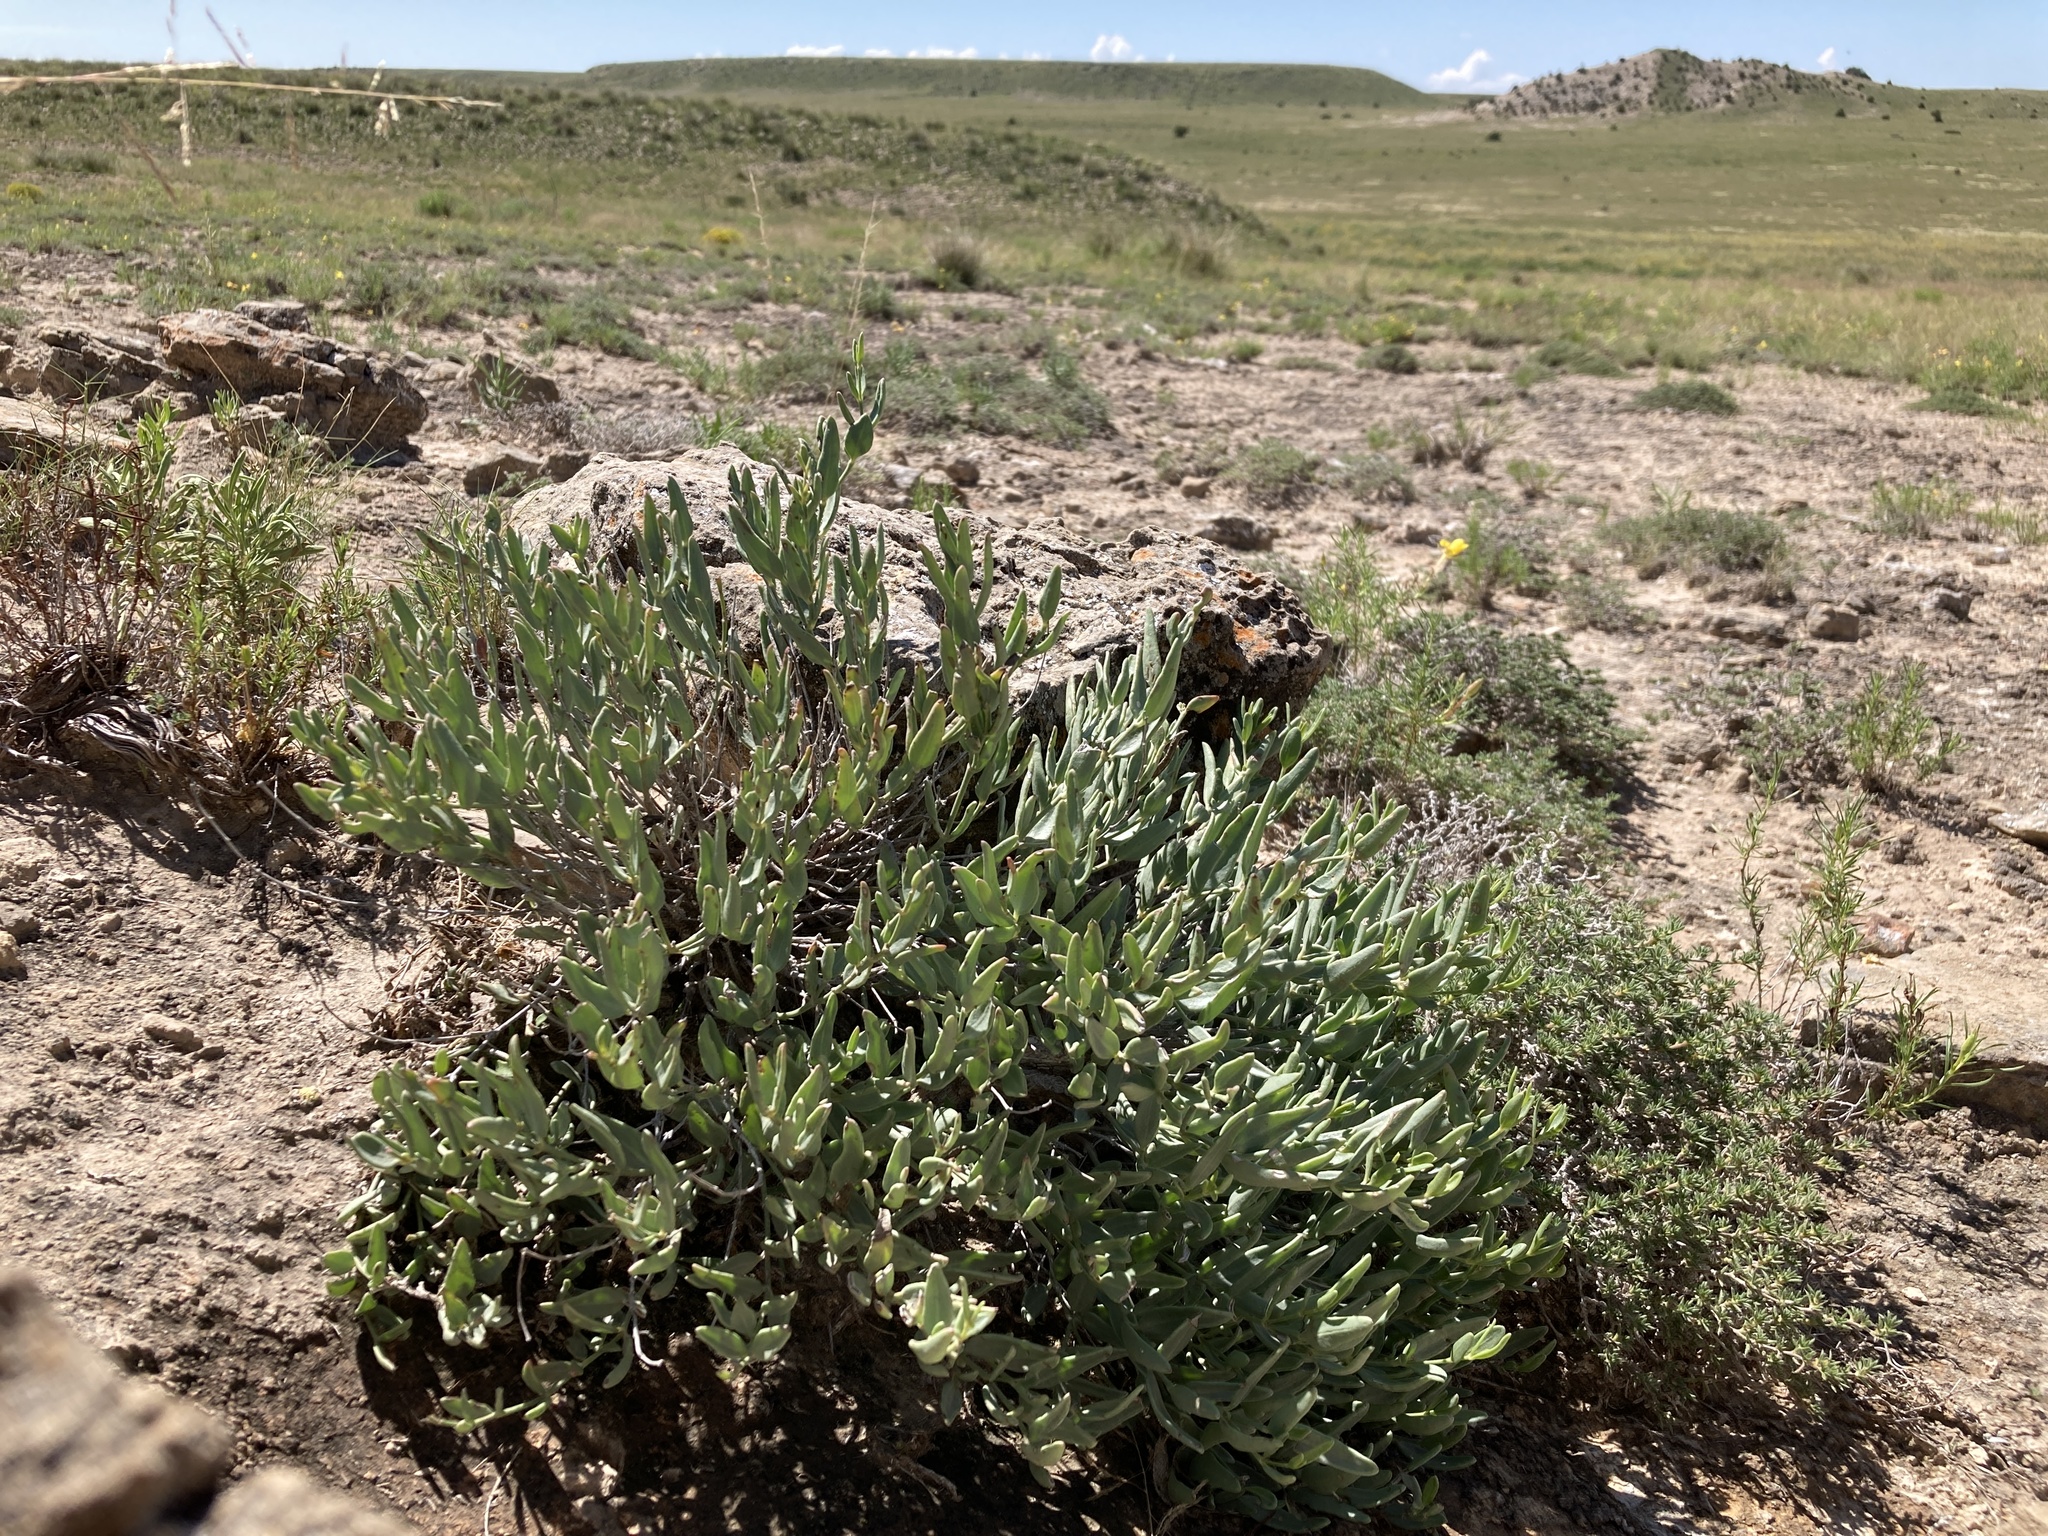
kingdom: Plantae
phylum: Tracheophyta
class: Magnoliopsida
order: Caryophyllales
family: Nyctaginaceae
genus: Acleisanthes
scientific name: Acleisanthes lanceolata
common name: Gypsum moonpod
